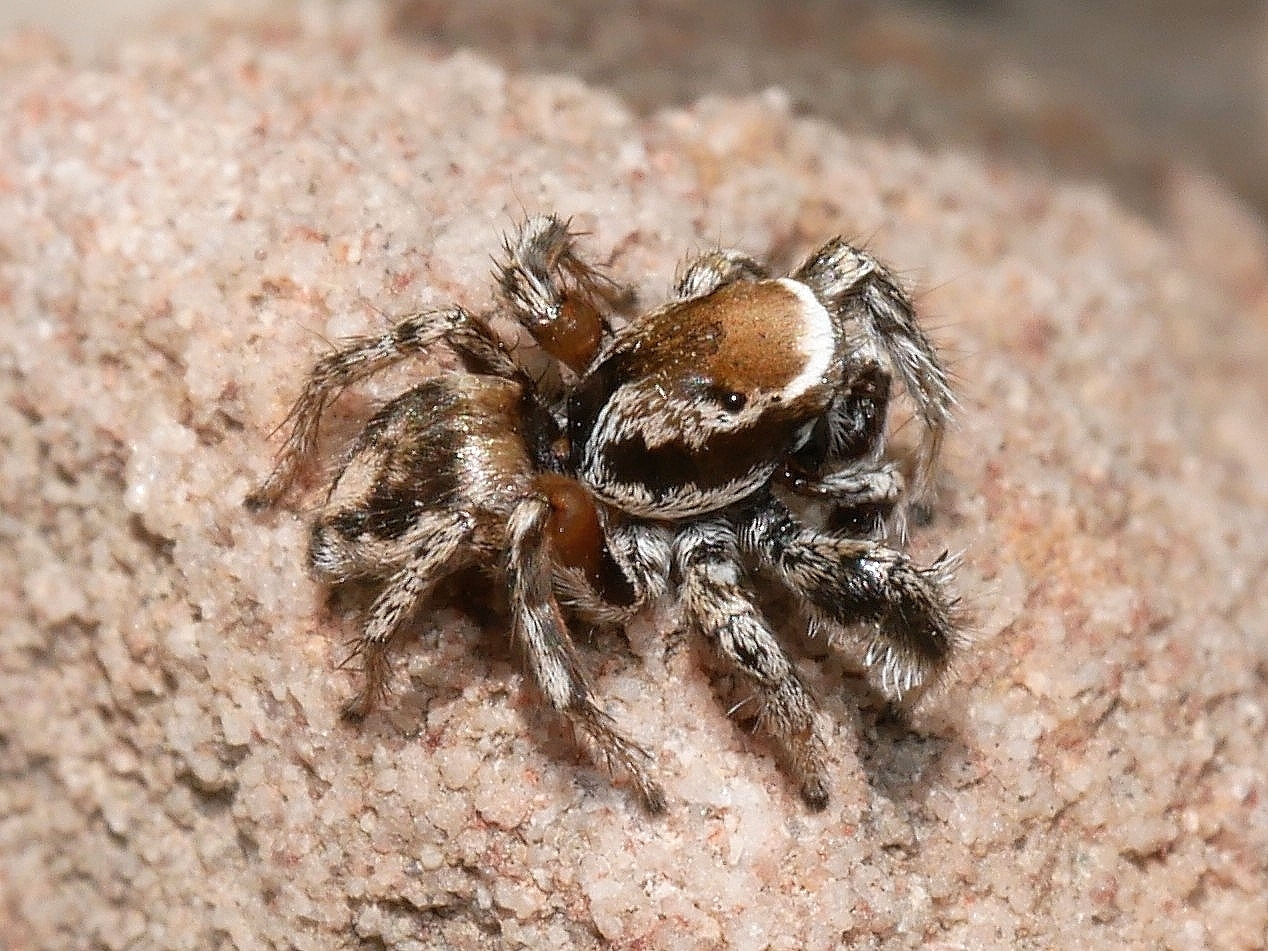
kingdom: Animalia
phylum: Arthropoda
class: Arachnida
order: Araneae
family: Salticidae
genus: Habronattus
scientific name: Habronattus clypeatus
